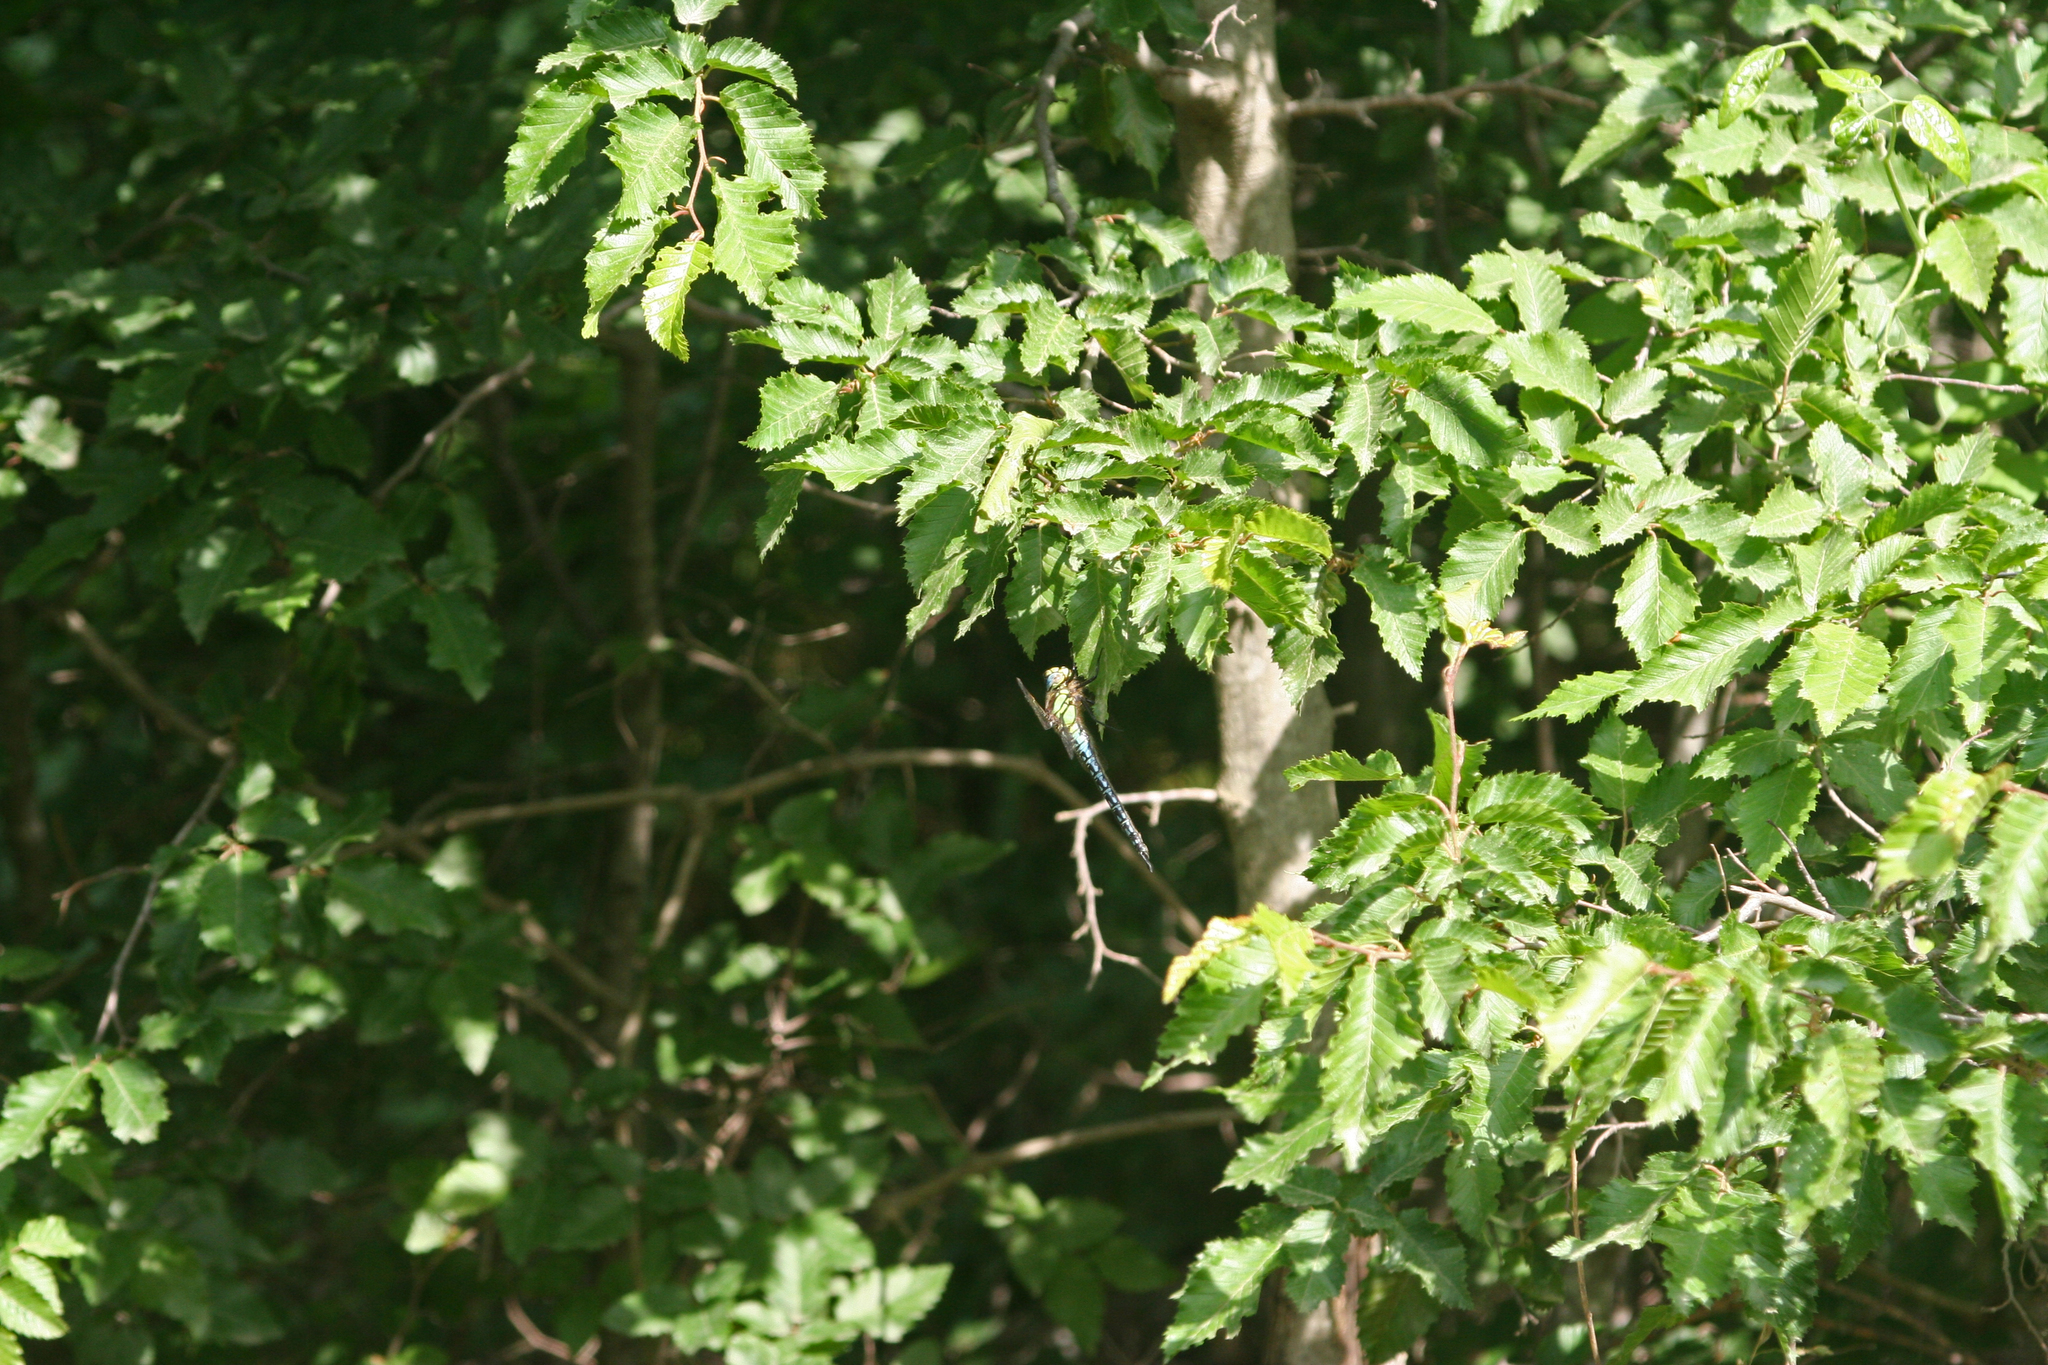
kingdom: Plantae
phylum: Tracheophyta
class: Magnoliopsida
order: Fagales
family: Betulaceae
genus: Carpinus
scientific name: Carpinus orientalis
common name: Eastern hornbeam
